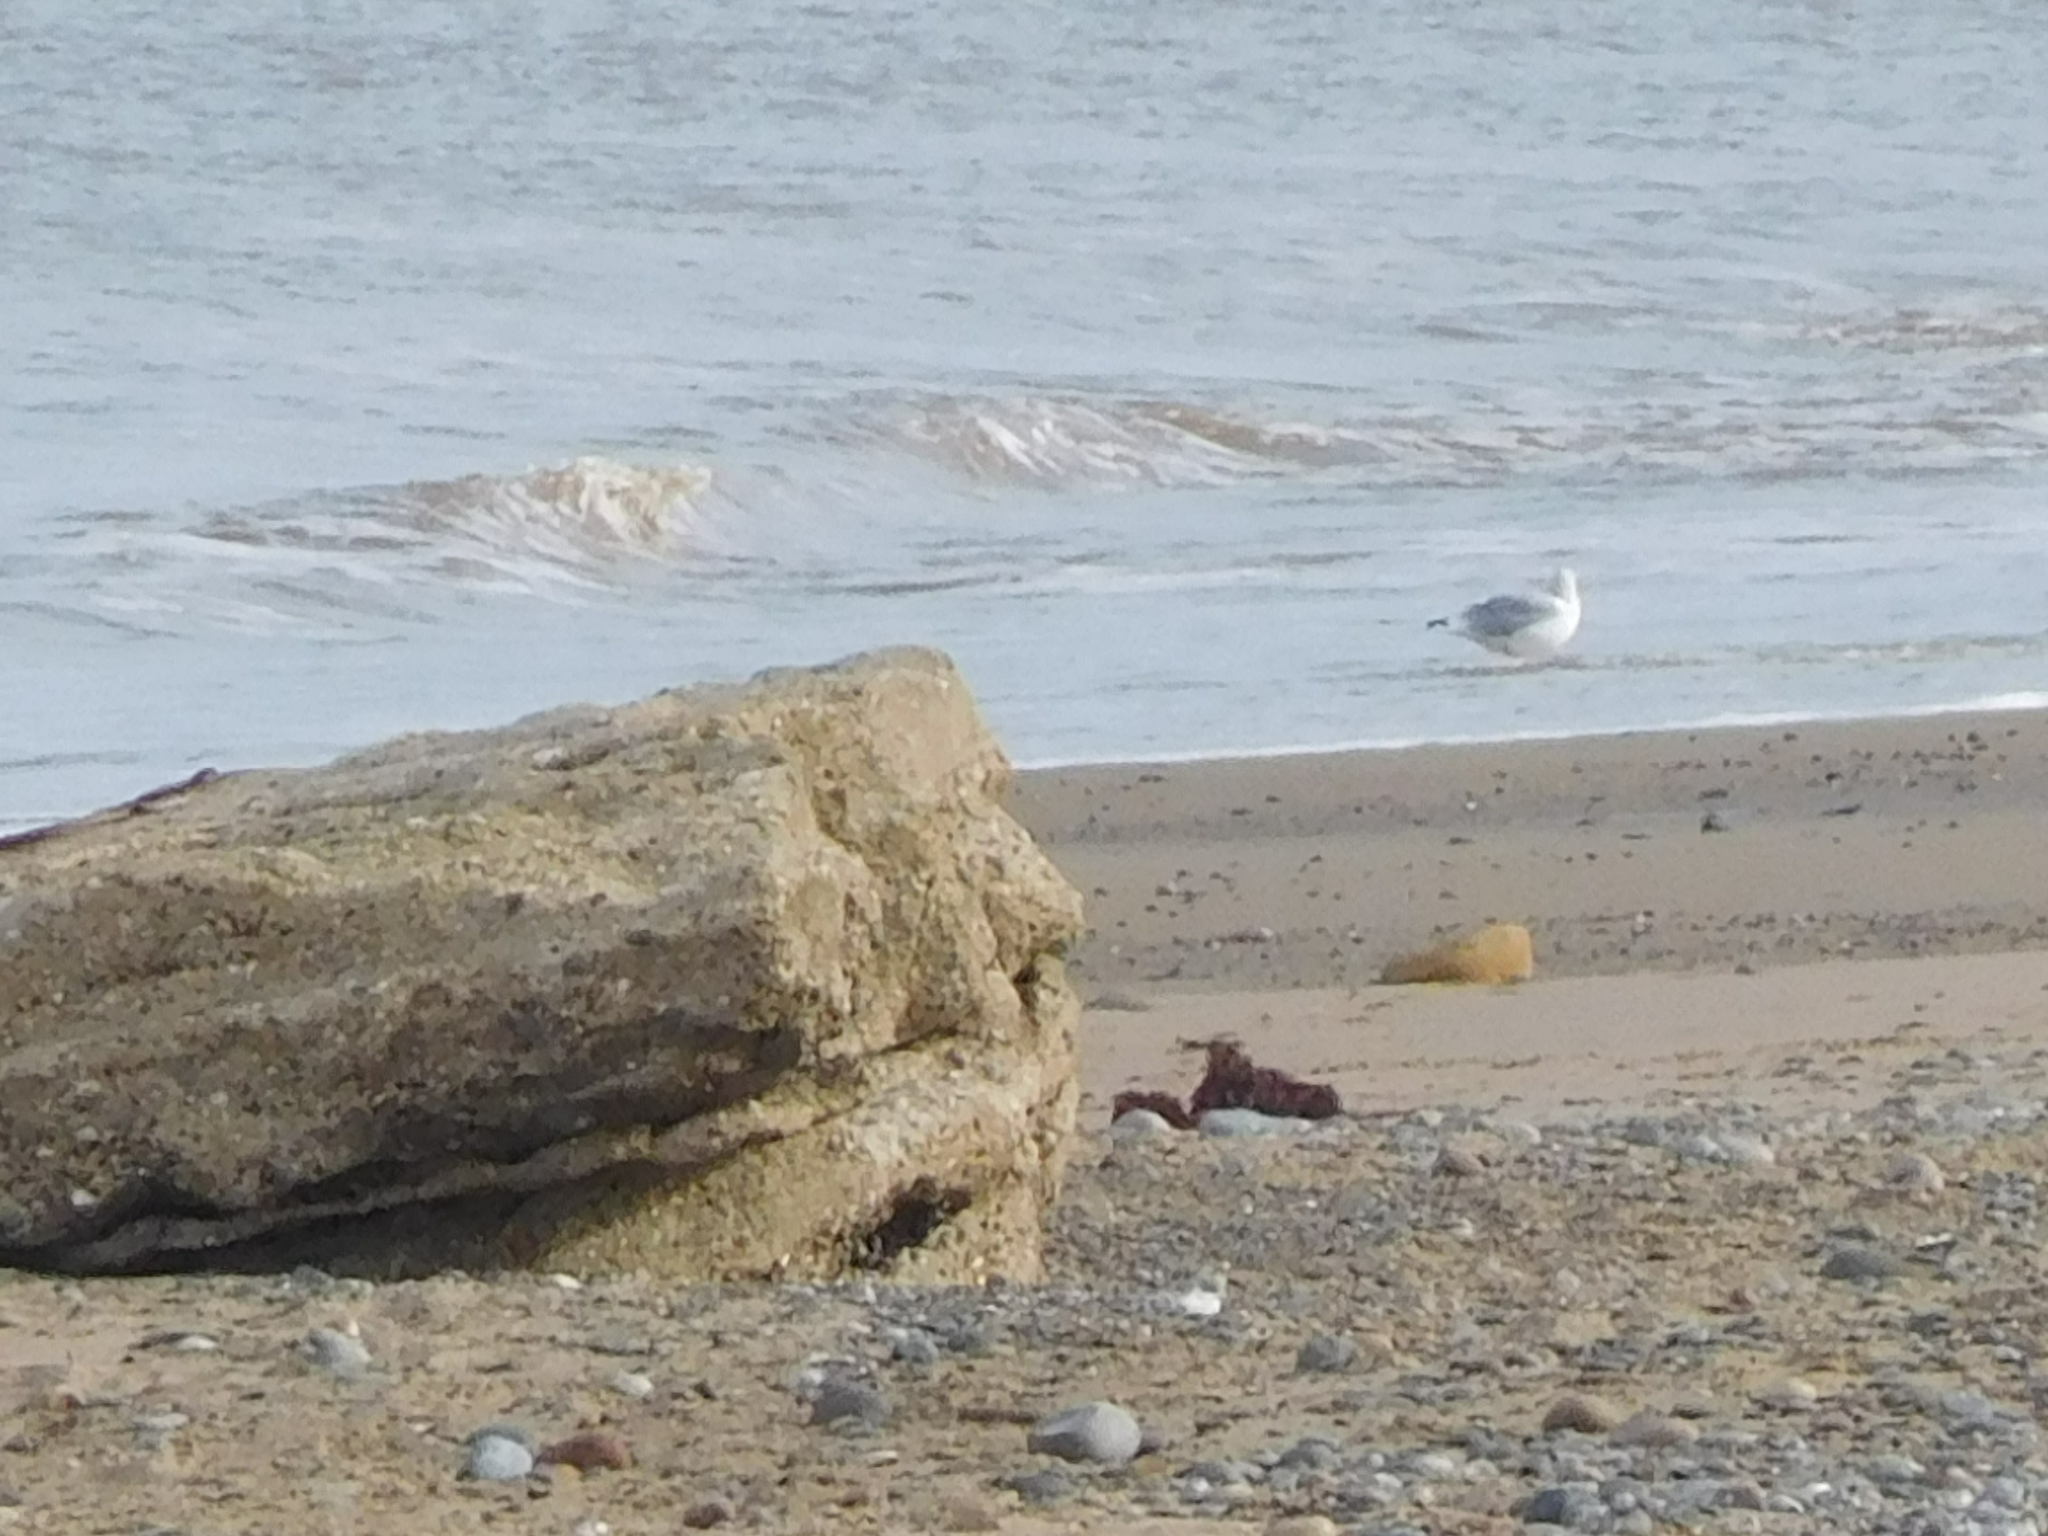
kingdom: Animalia
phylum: Chordata
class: Aves
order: Charadriiformes
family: Laridae
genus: Larus
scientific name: Larus argentatus
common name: Herring gull
